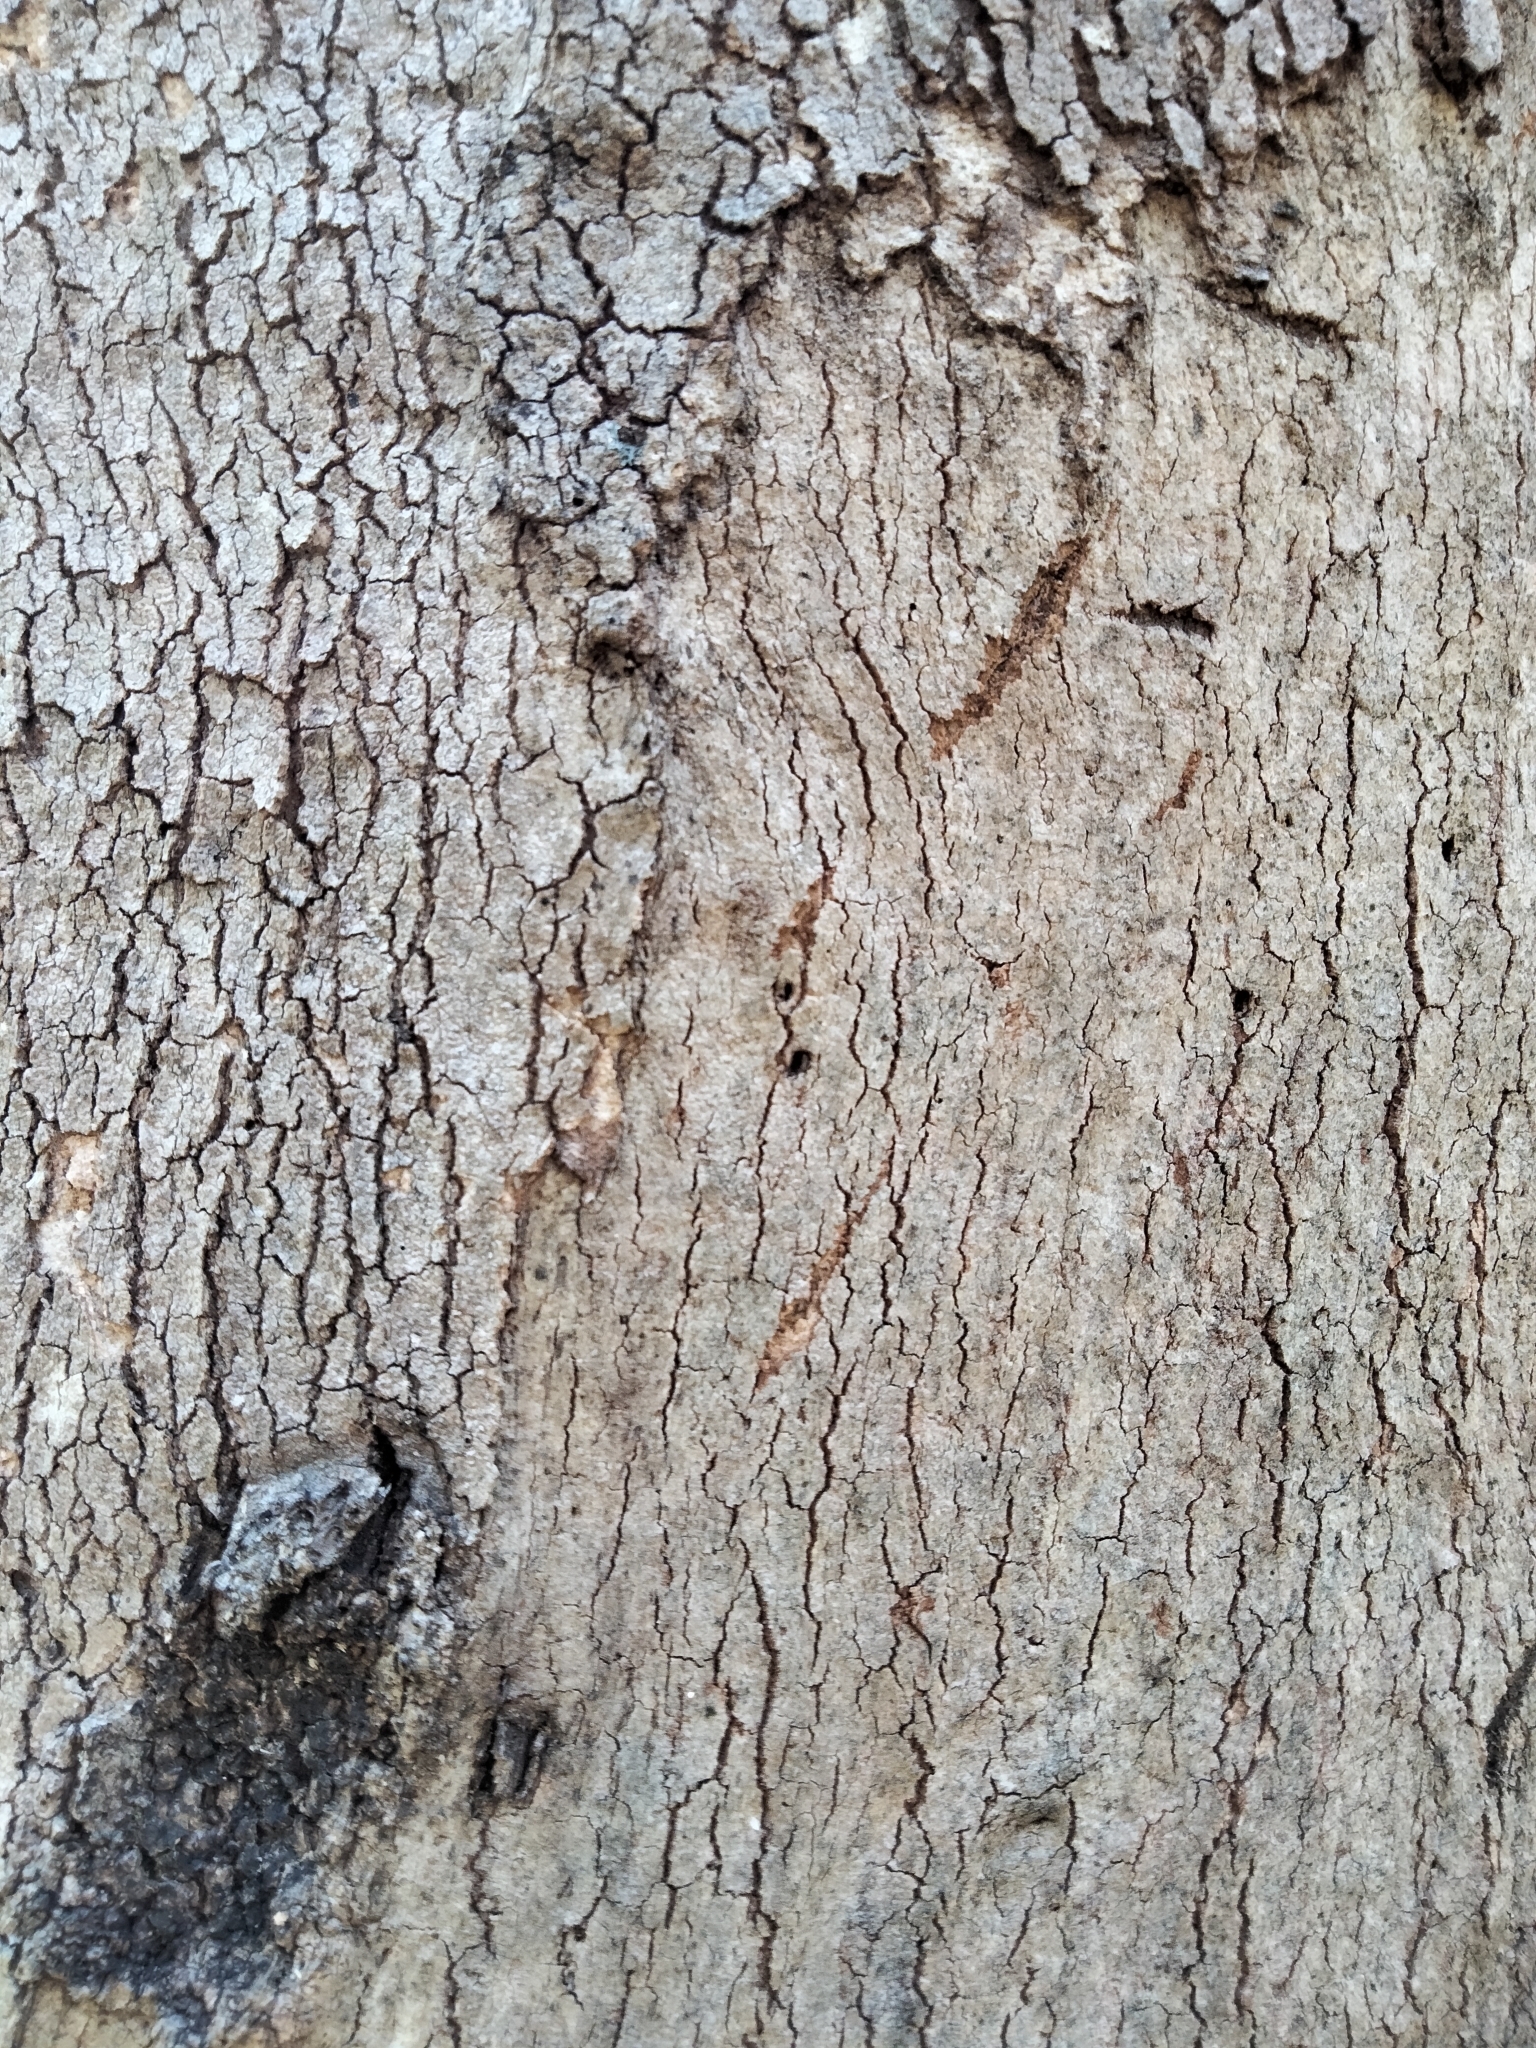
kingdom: Animalia
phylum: Chordata
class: Mammalia
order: Diprotodontia
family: Phascolarctidae
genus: Phascolarctos
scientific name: Phascolarctos cinereus
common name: Koala
